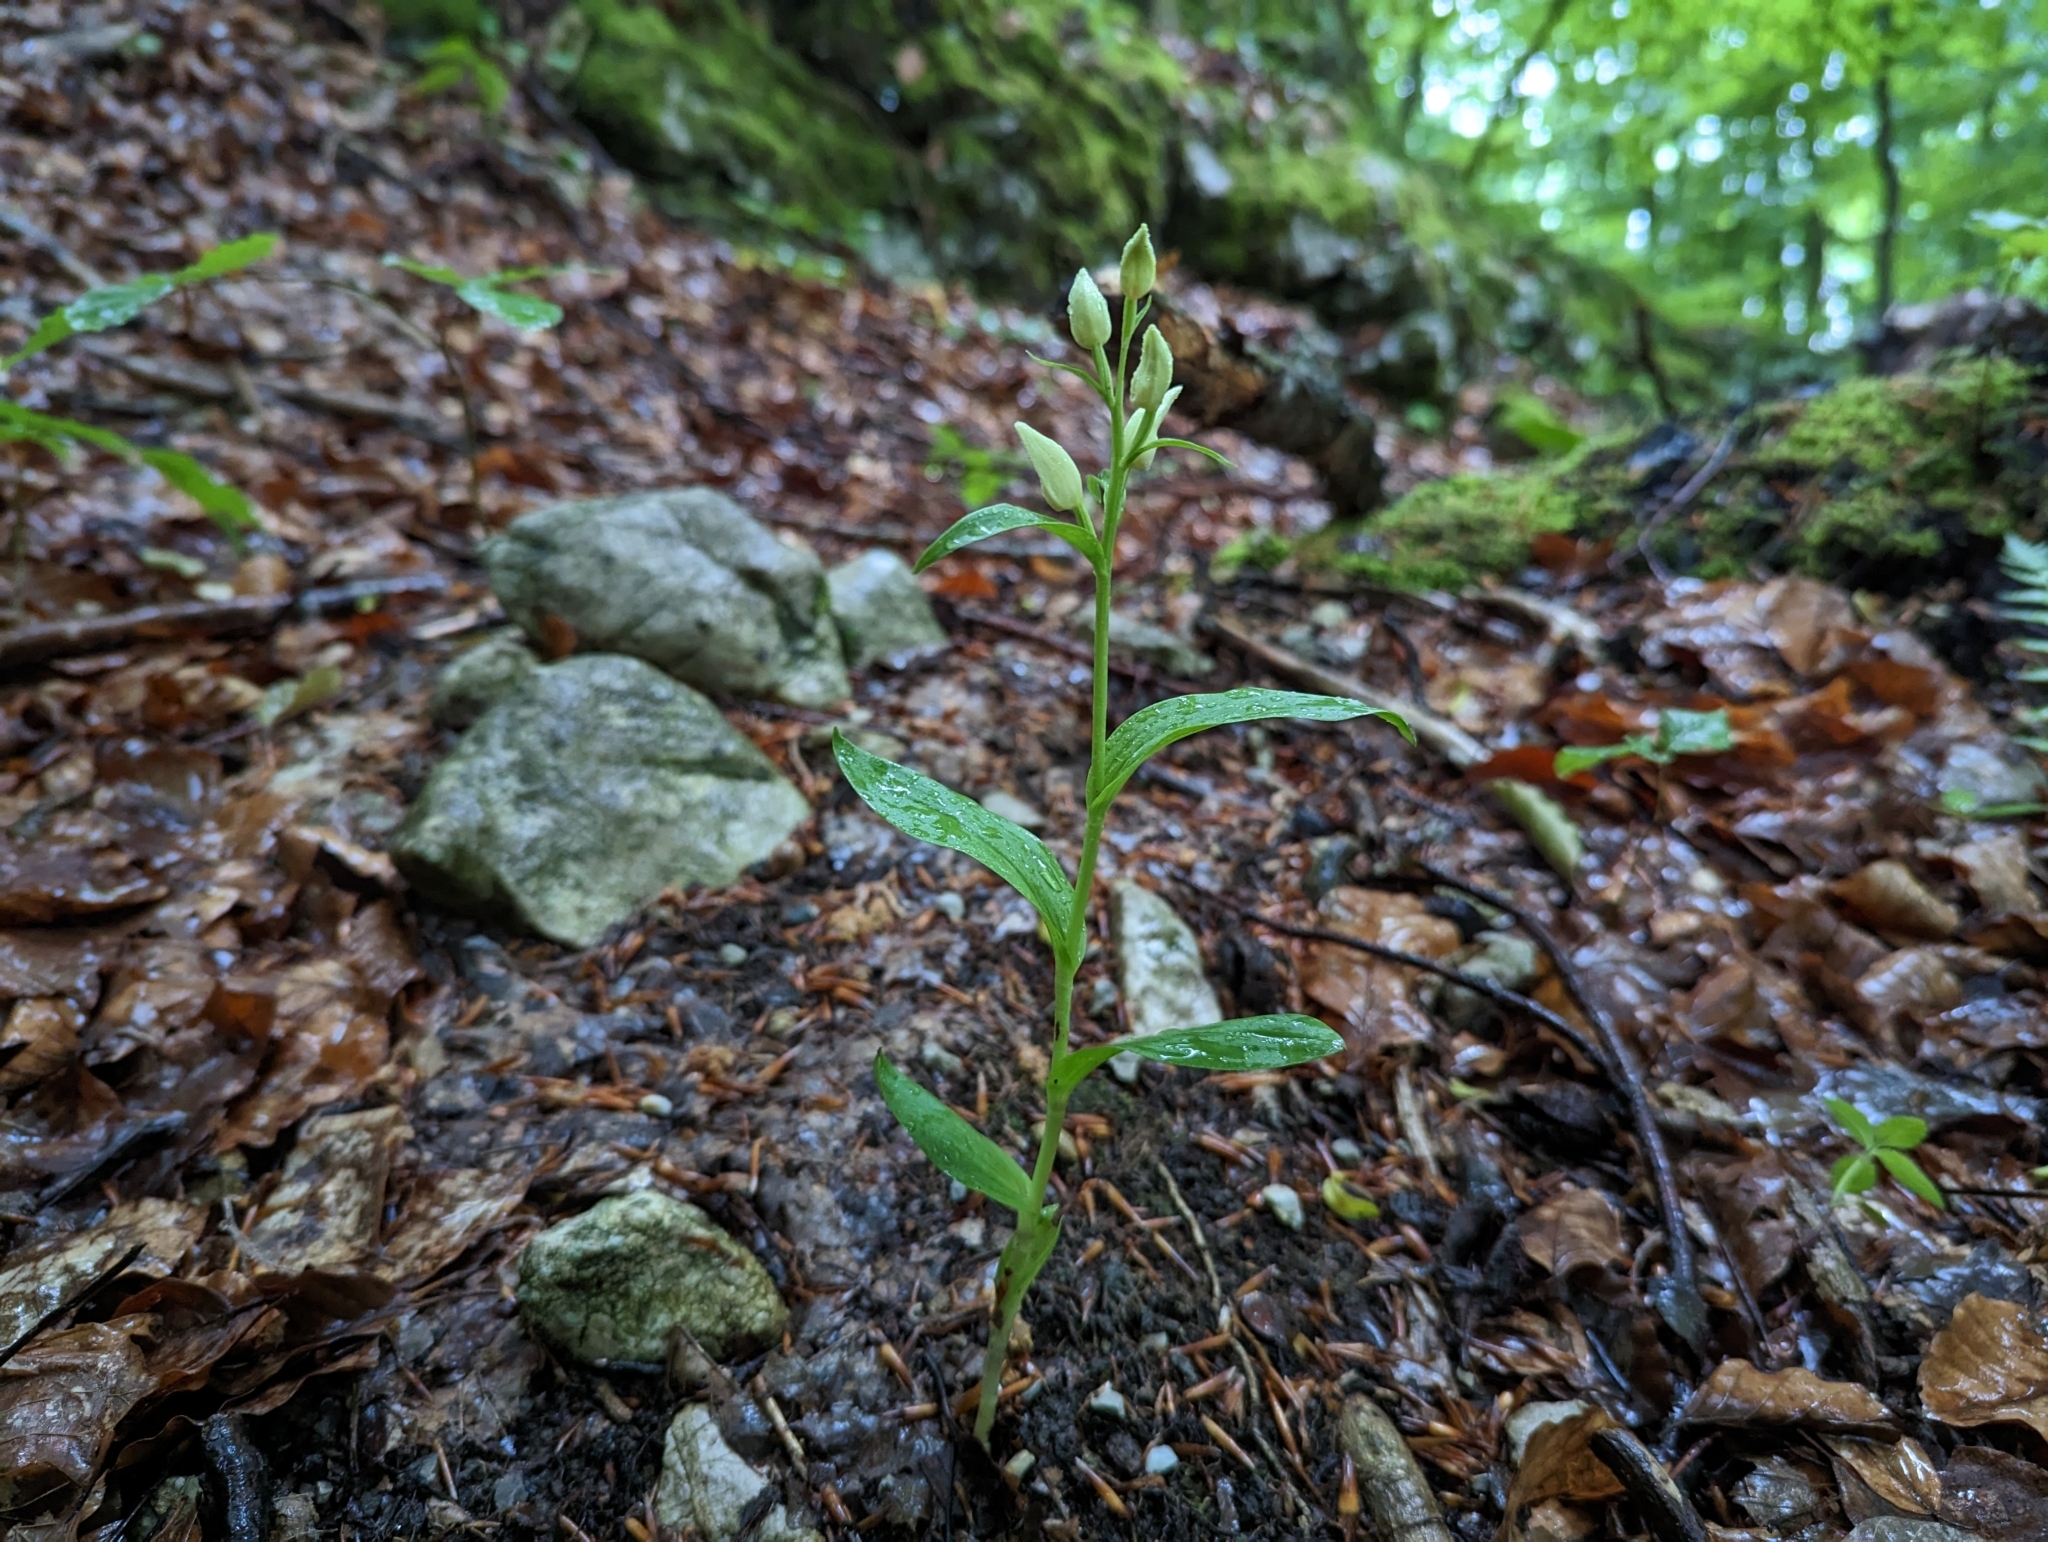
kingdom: Plantae
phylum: Tracheophyta
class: Liliopsida
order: Asparagales
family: Orchidaceae
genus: Cephalanthera
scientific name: Cephalanthera damasonium
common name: White helleborine
